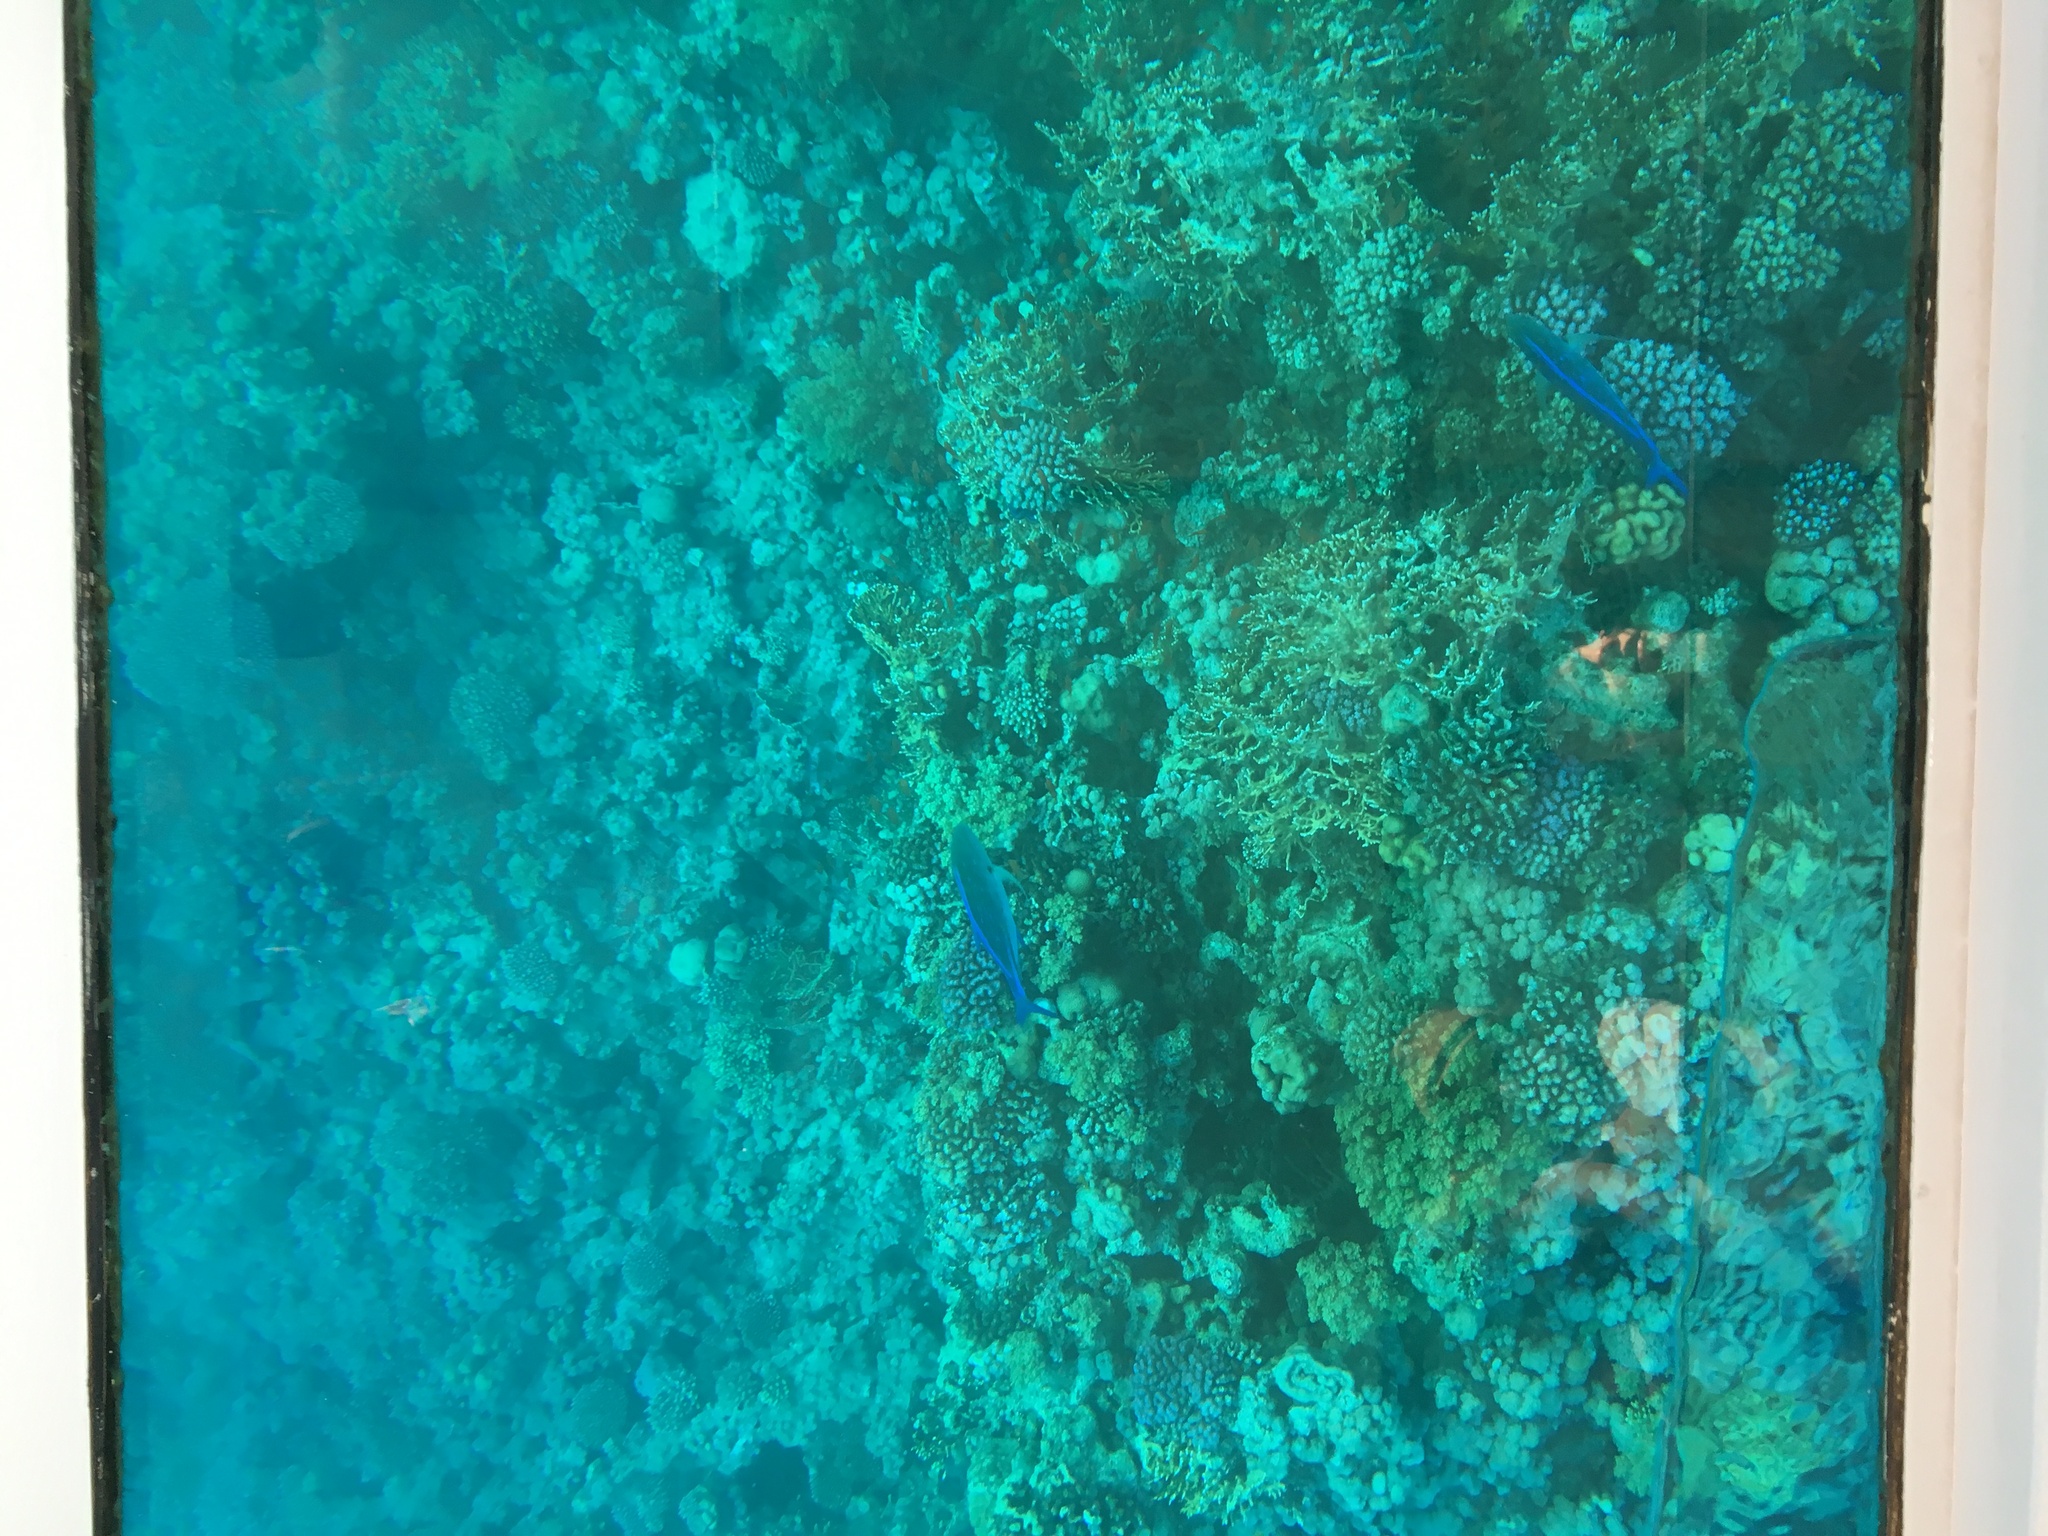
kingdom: Animalia
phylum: Chordata
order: Perciformes
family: Carangidae
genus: Caranx
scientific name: Caranx melampygus
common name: Bluefin trevally
